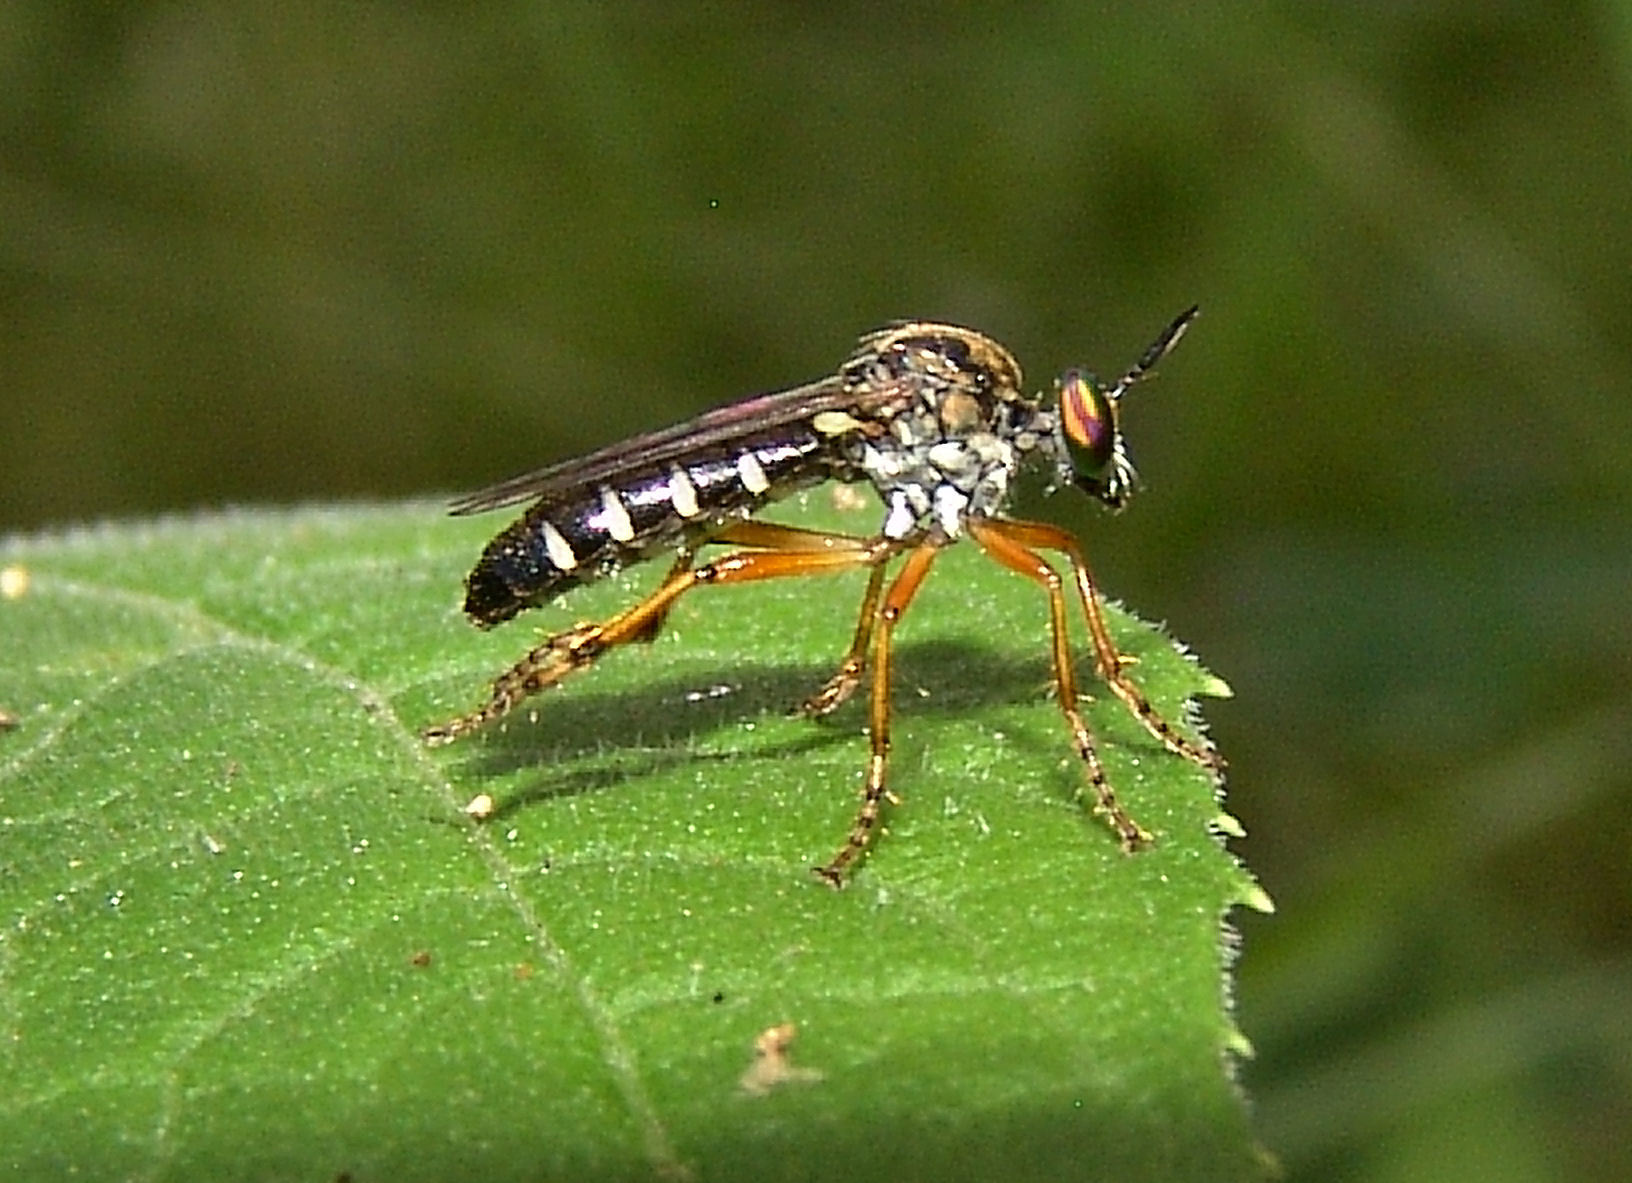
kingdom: Animalia
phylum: Arthropoda
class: Insecta
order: Diptera
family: Asilidae
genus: Taracticus
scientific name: Taracticus octopunctatus
